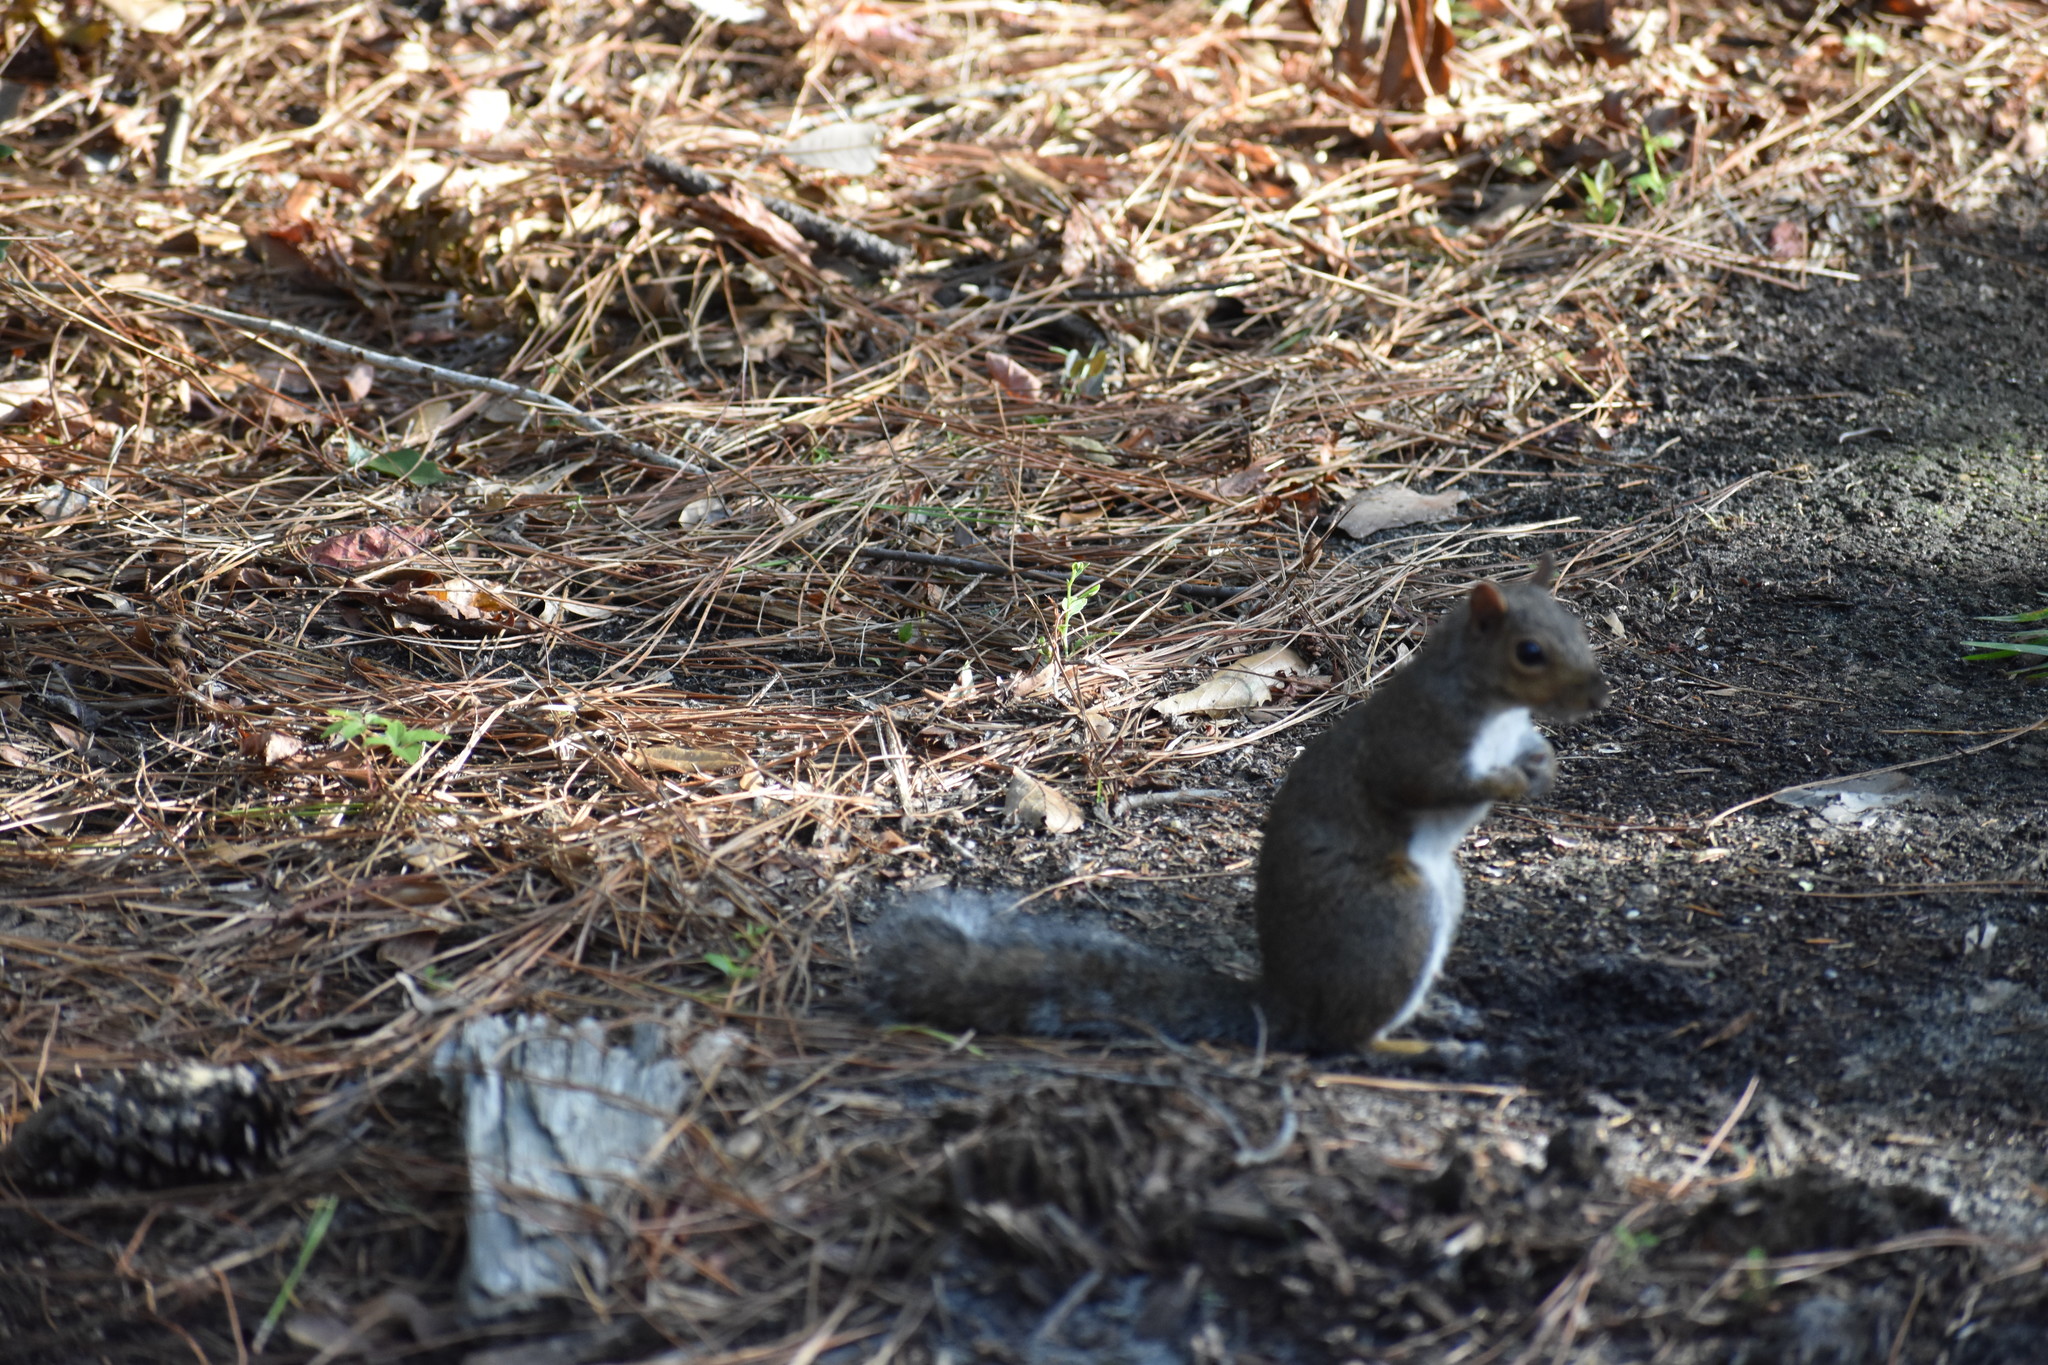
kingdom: Animalia
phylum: Chordata
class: Mammalia
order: Rodentia
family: Sciuridae
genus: Sciurus
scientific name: Sciurus carolinensis
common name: Eastern gray squirrel
